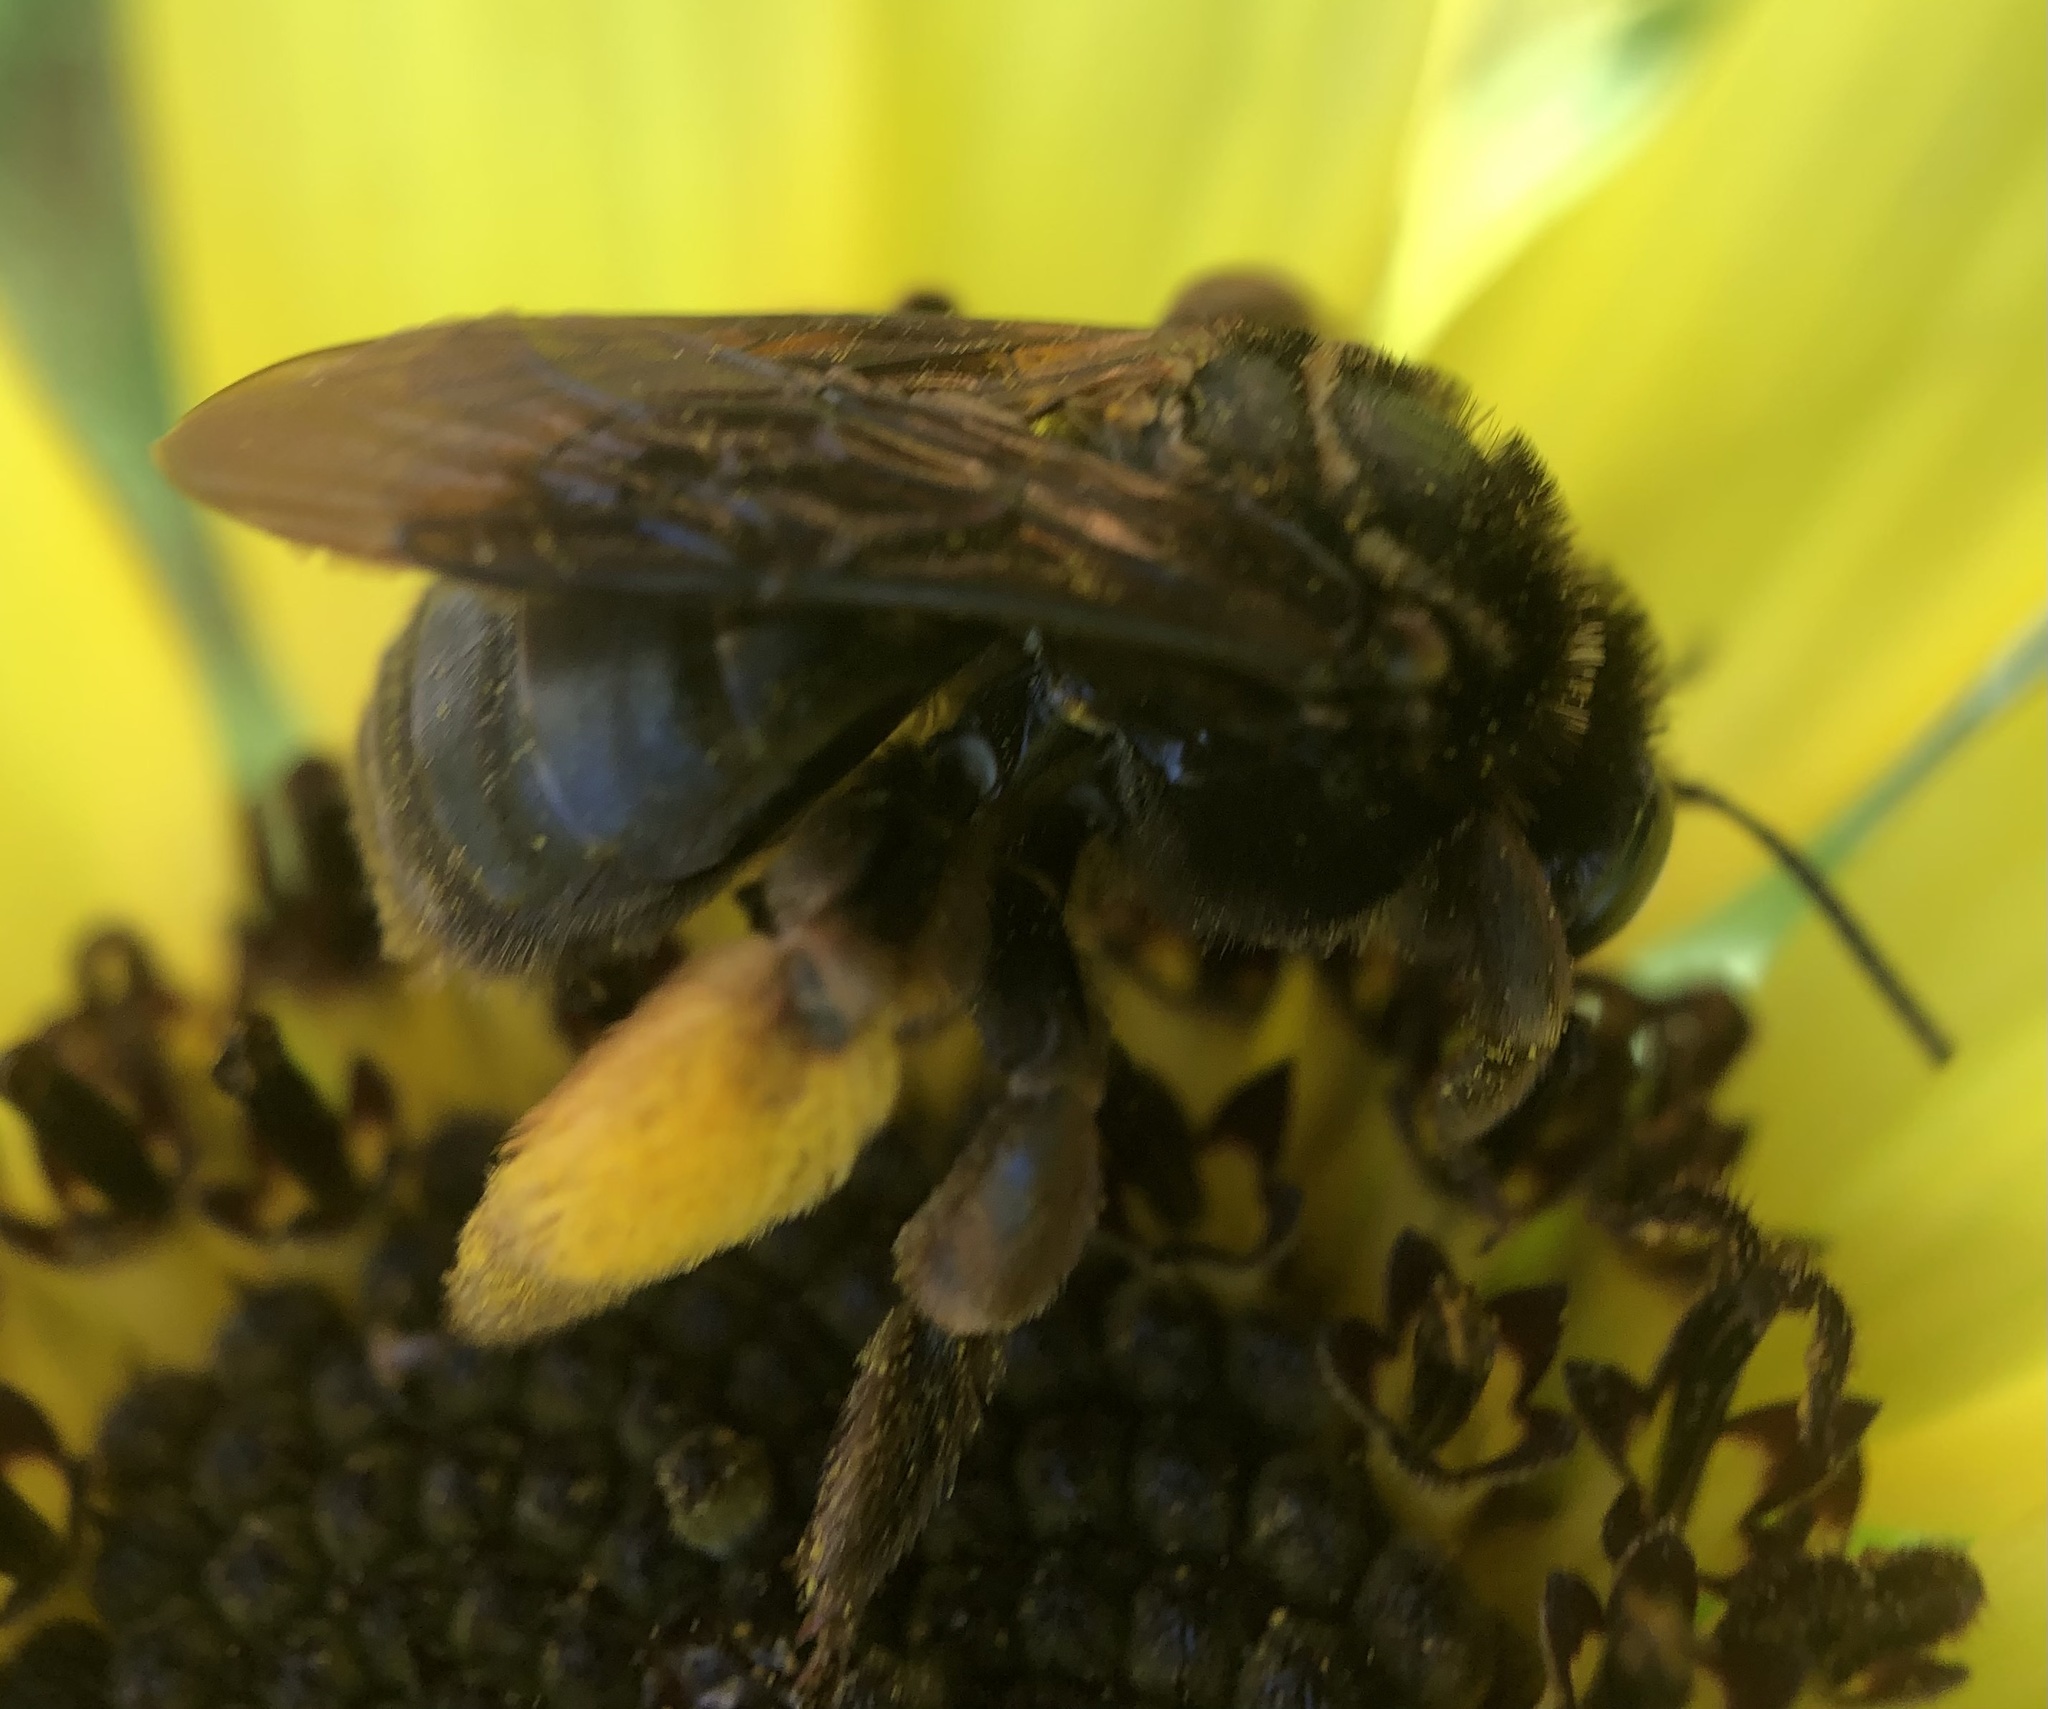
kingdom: Animalia
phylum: Arthropoda
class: Insecta
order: Hymenoptera
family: Apidae
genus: Svastra
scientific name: Svastra obliqua
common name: Oblique longhorn
